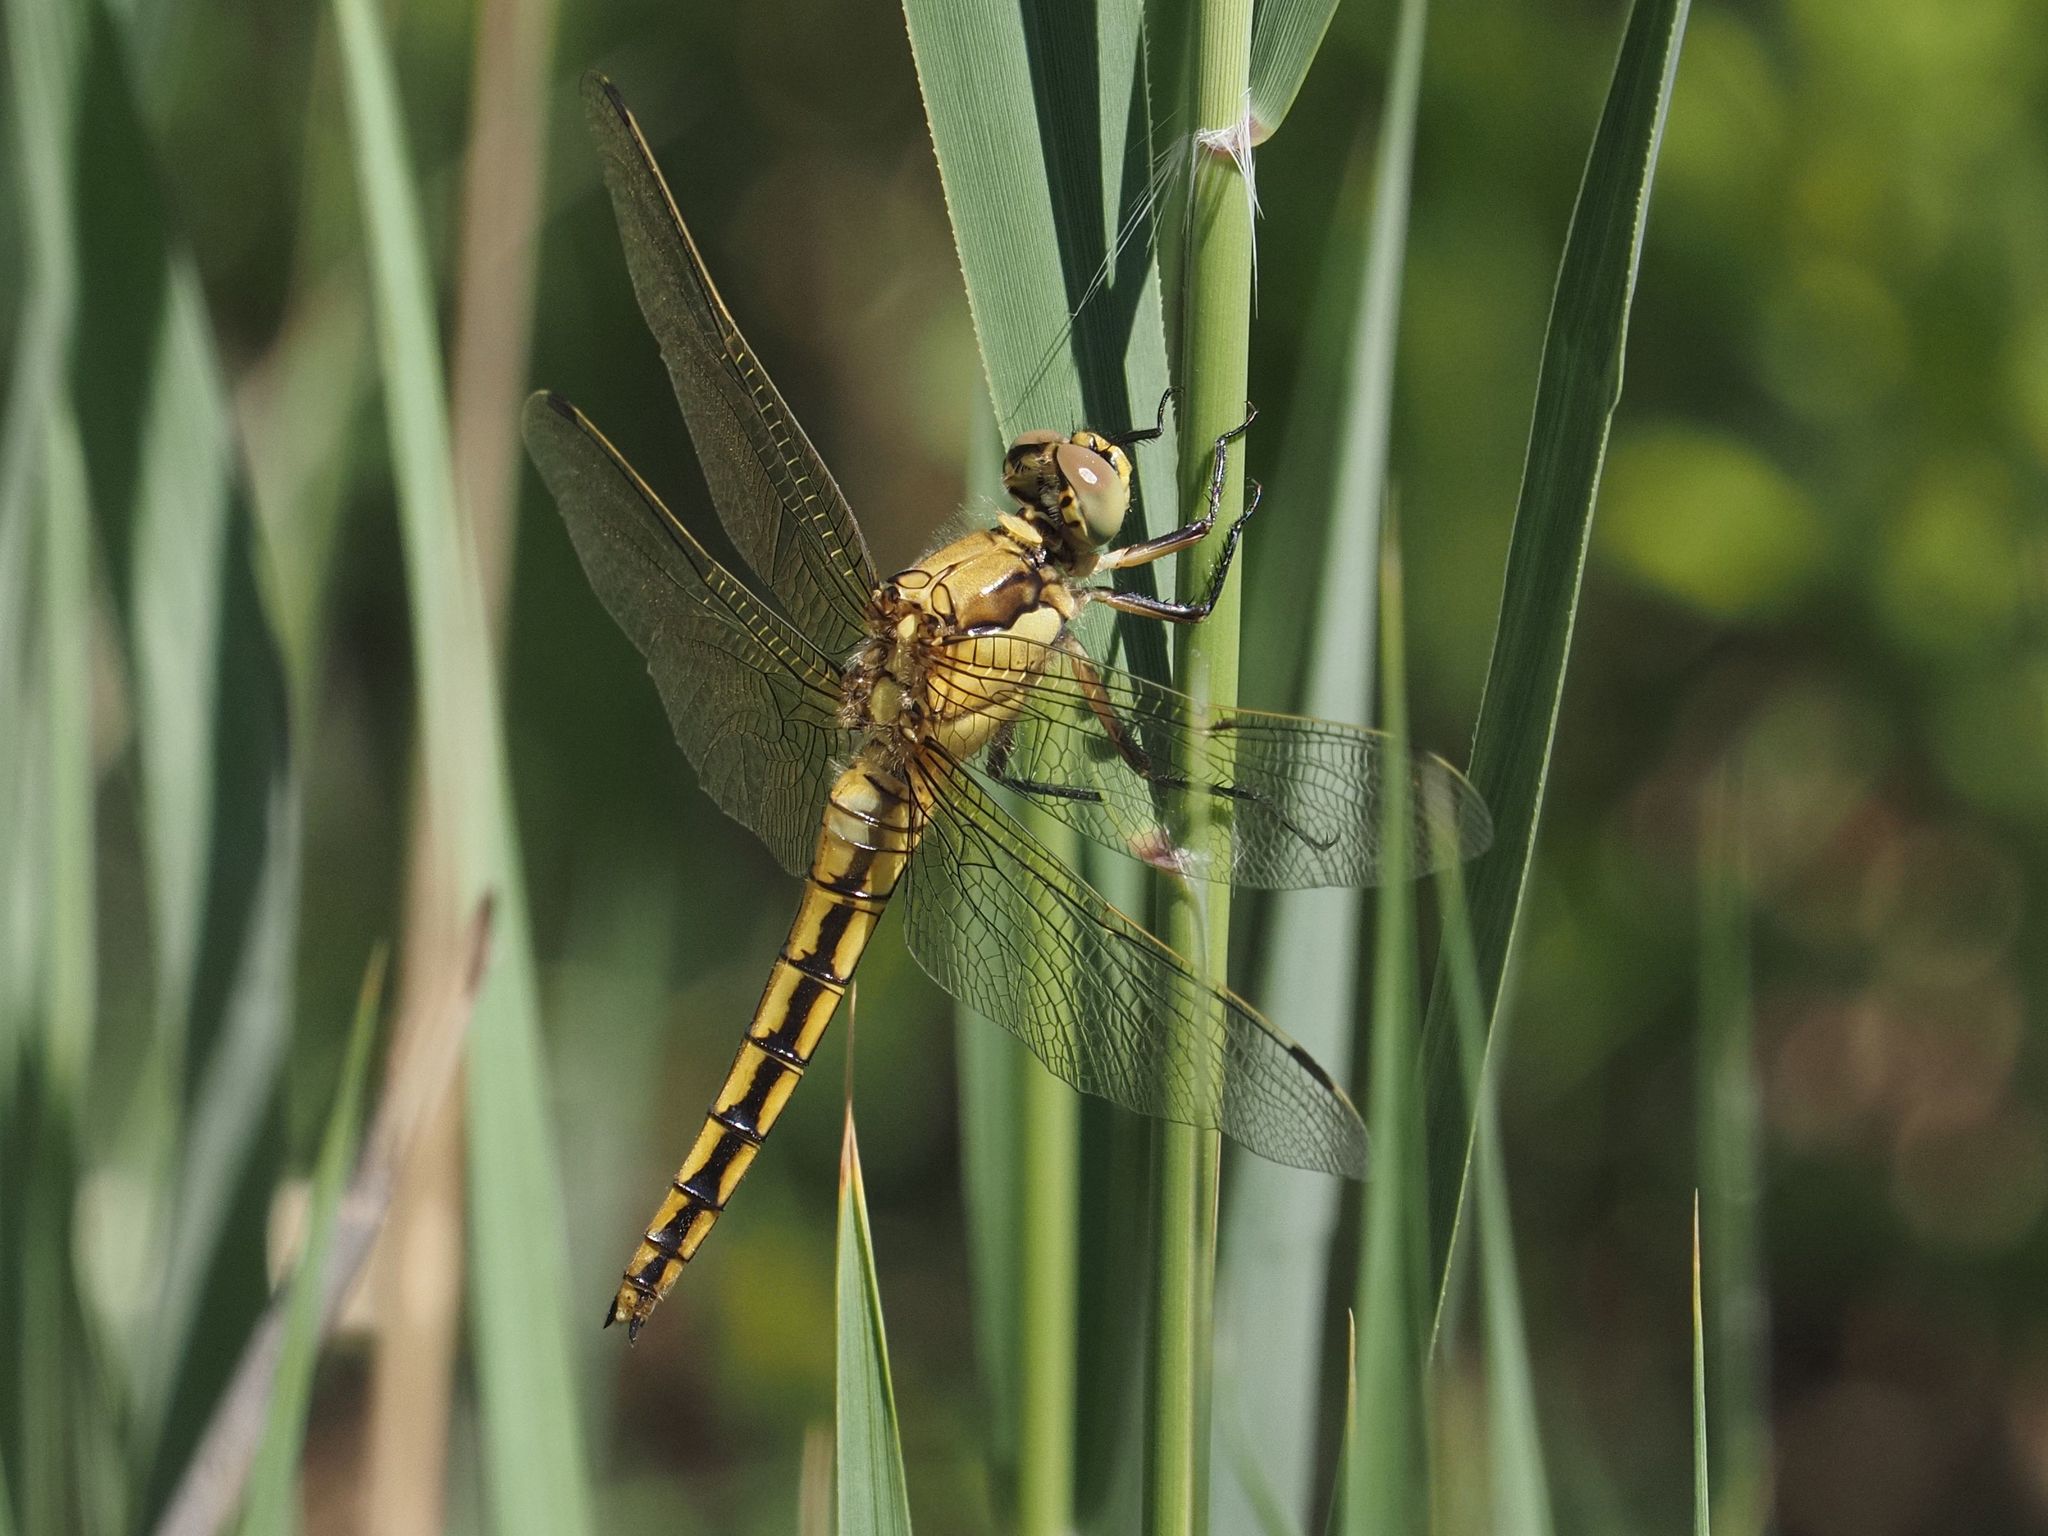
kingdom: Animalia
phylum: Arthropoda
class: Insecta
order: Odonata
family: Libellulidae
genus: Orthetrum
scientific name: Orthetrum cancellatum
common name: Black-tailed skimmer
